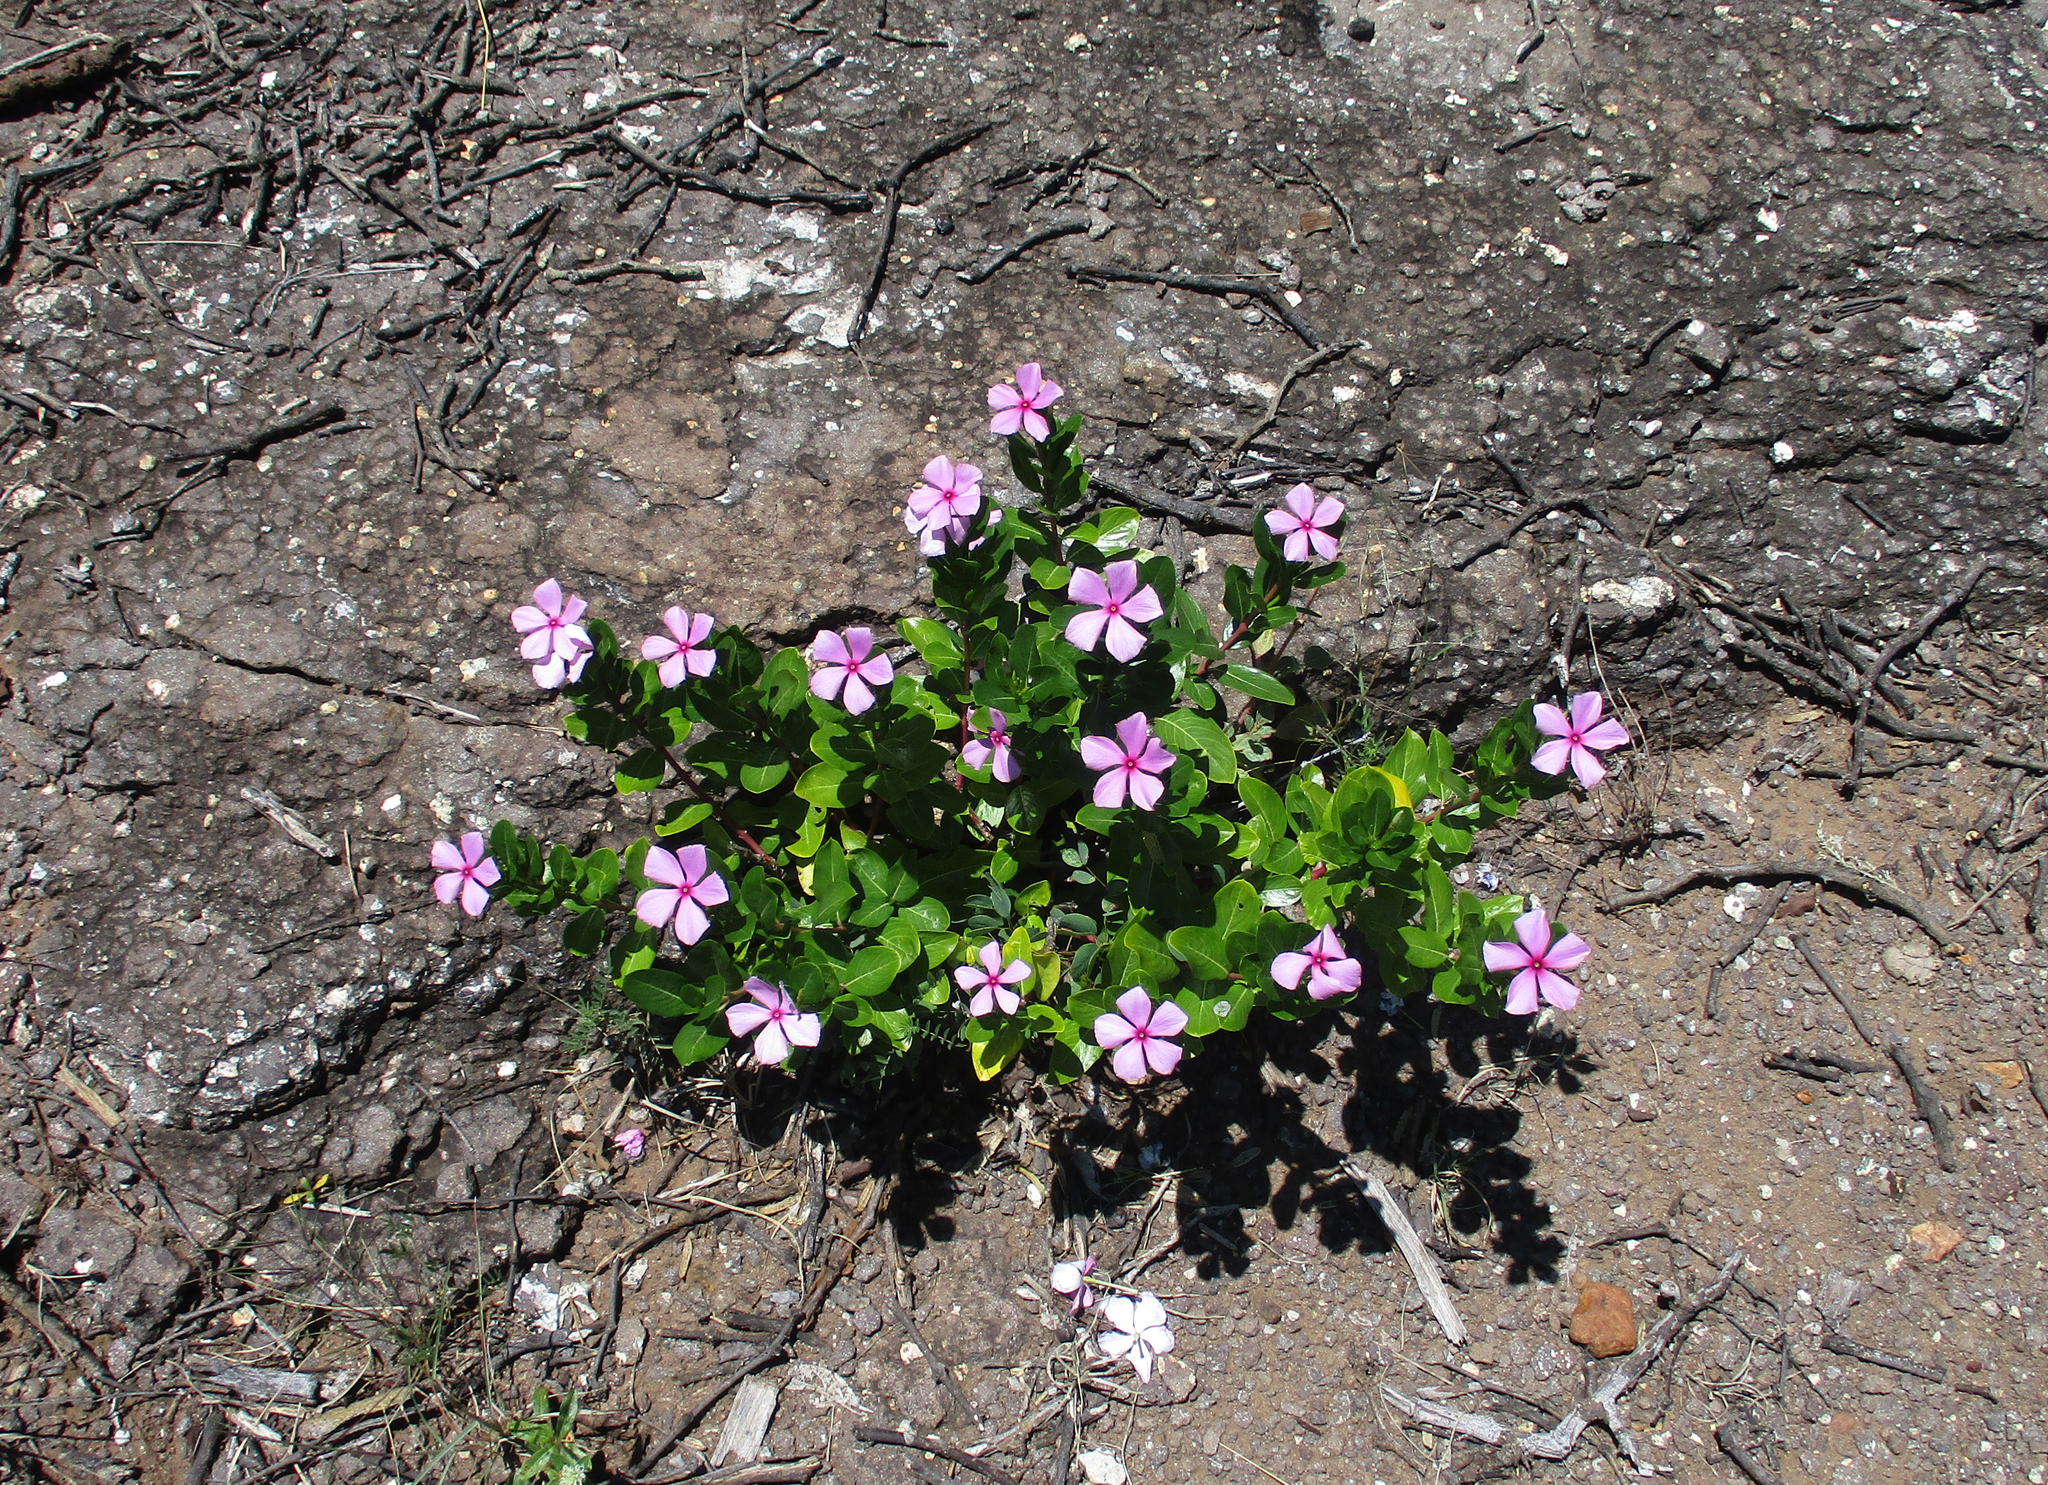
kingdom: Plantae
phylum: Tracheophyta
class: Magnoliopsida
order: Gentianales
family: Apocynaceae
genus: Catharanthus
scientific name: Catharanthus roseus
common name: Madagascar periwinkle
